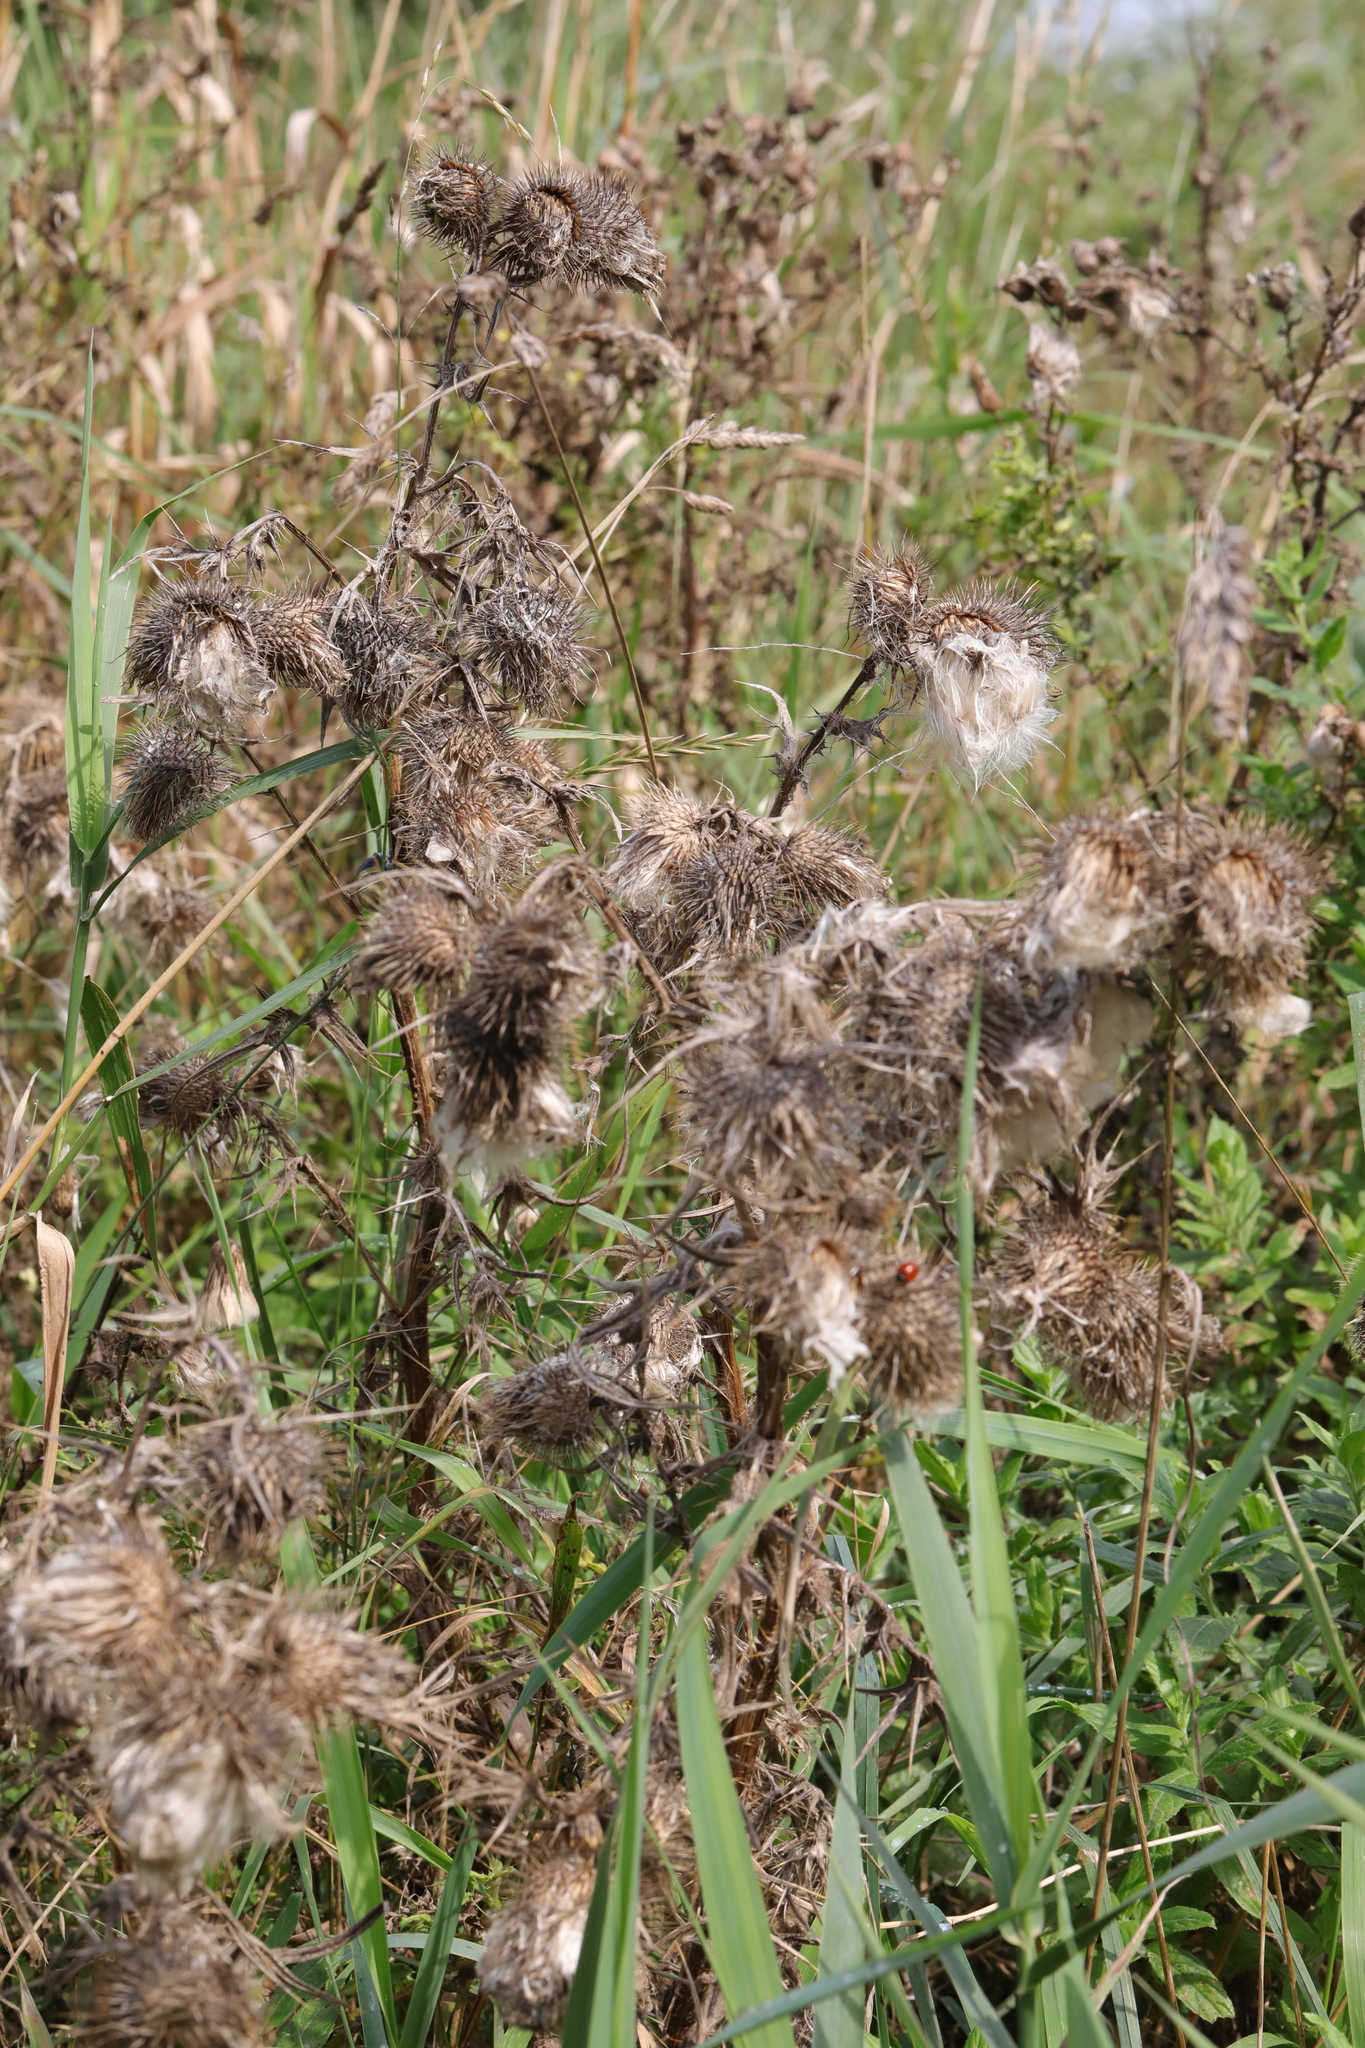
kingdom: Plantae
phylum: Tracheophyta
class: Magnoliopsida
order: Asterales
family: Asteraceae
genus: Cirsium
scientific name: Cirsium vulgare
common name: Bull thistle
